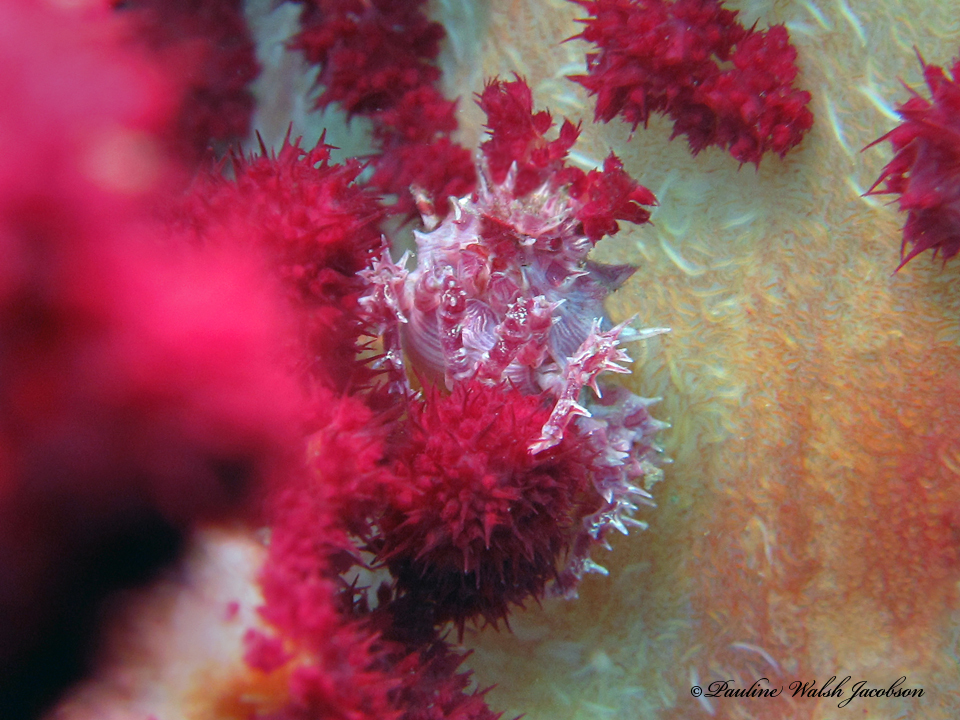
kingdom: Animalia
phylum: Arthropoda
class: Malacostraca
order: Decapoda
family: Epialtidae
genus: Hoplophrys
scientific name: Hoplophrys oatesii
